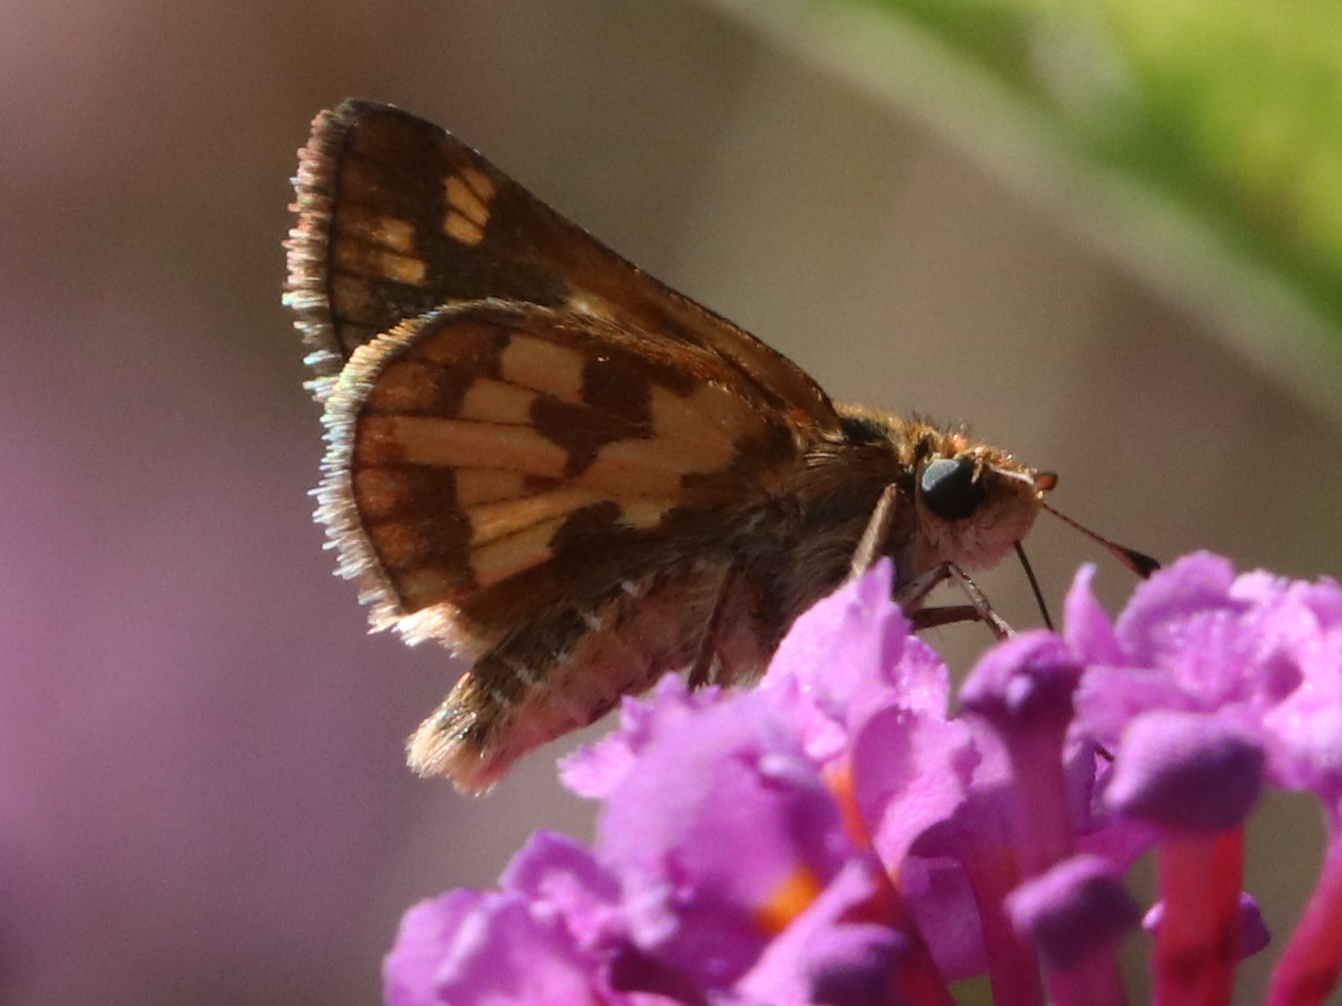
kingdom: Animalia
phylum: Arthropoda
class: Insecta
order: Lepidoptera
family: Hesperiidae
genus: Polites
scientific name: Polites coras
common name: Peck's skipper
